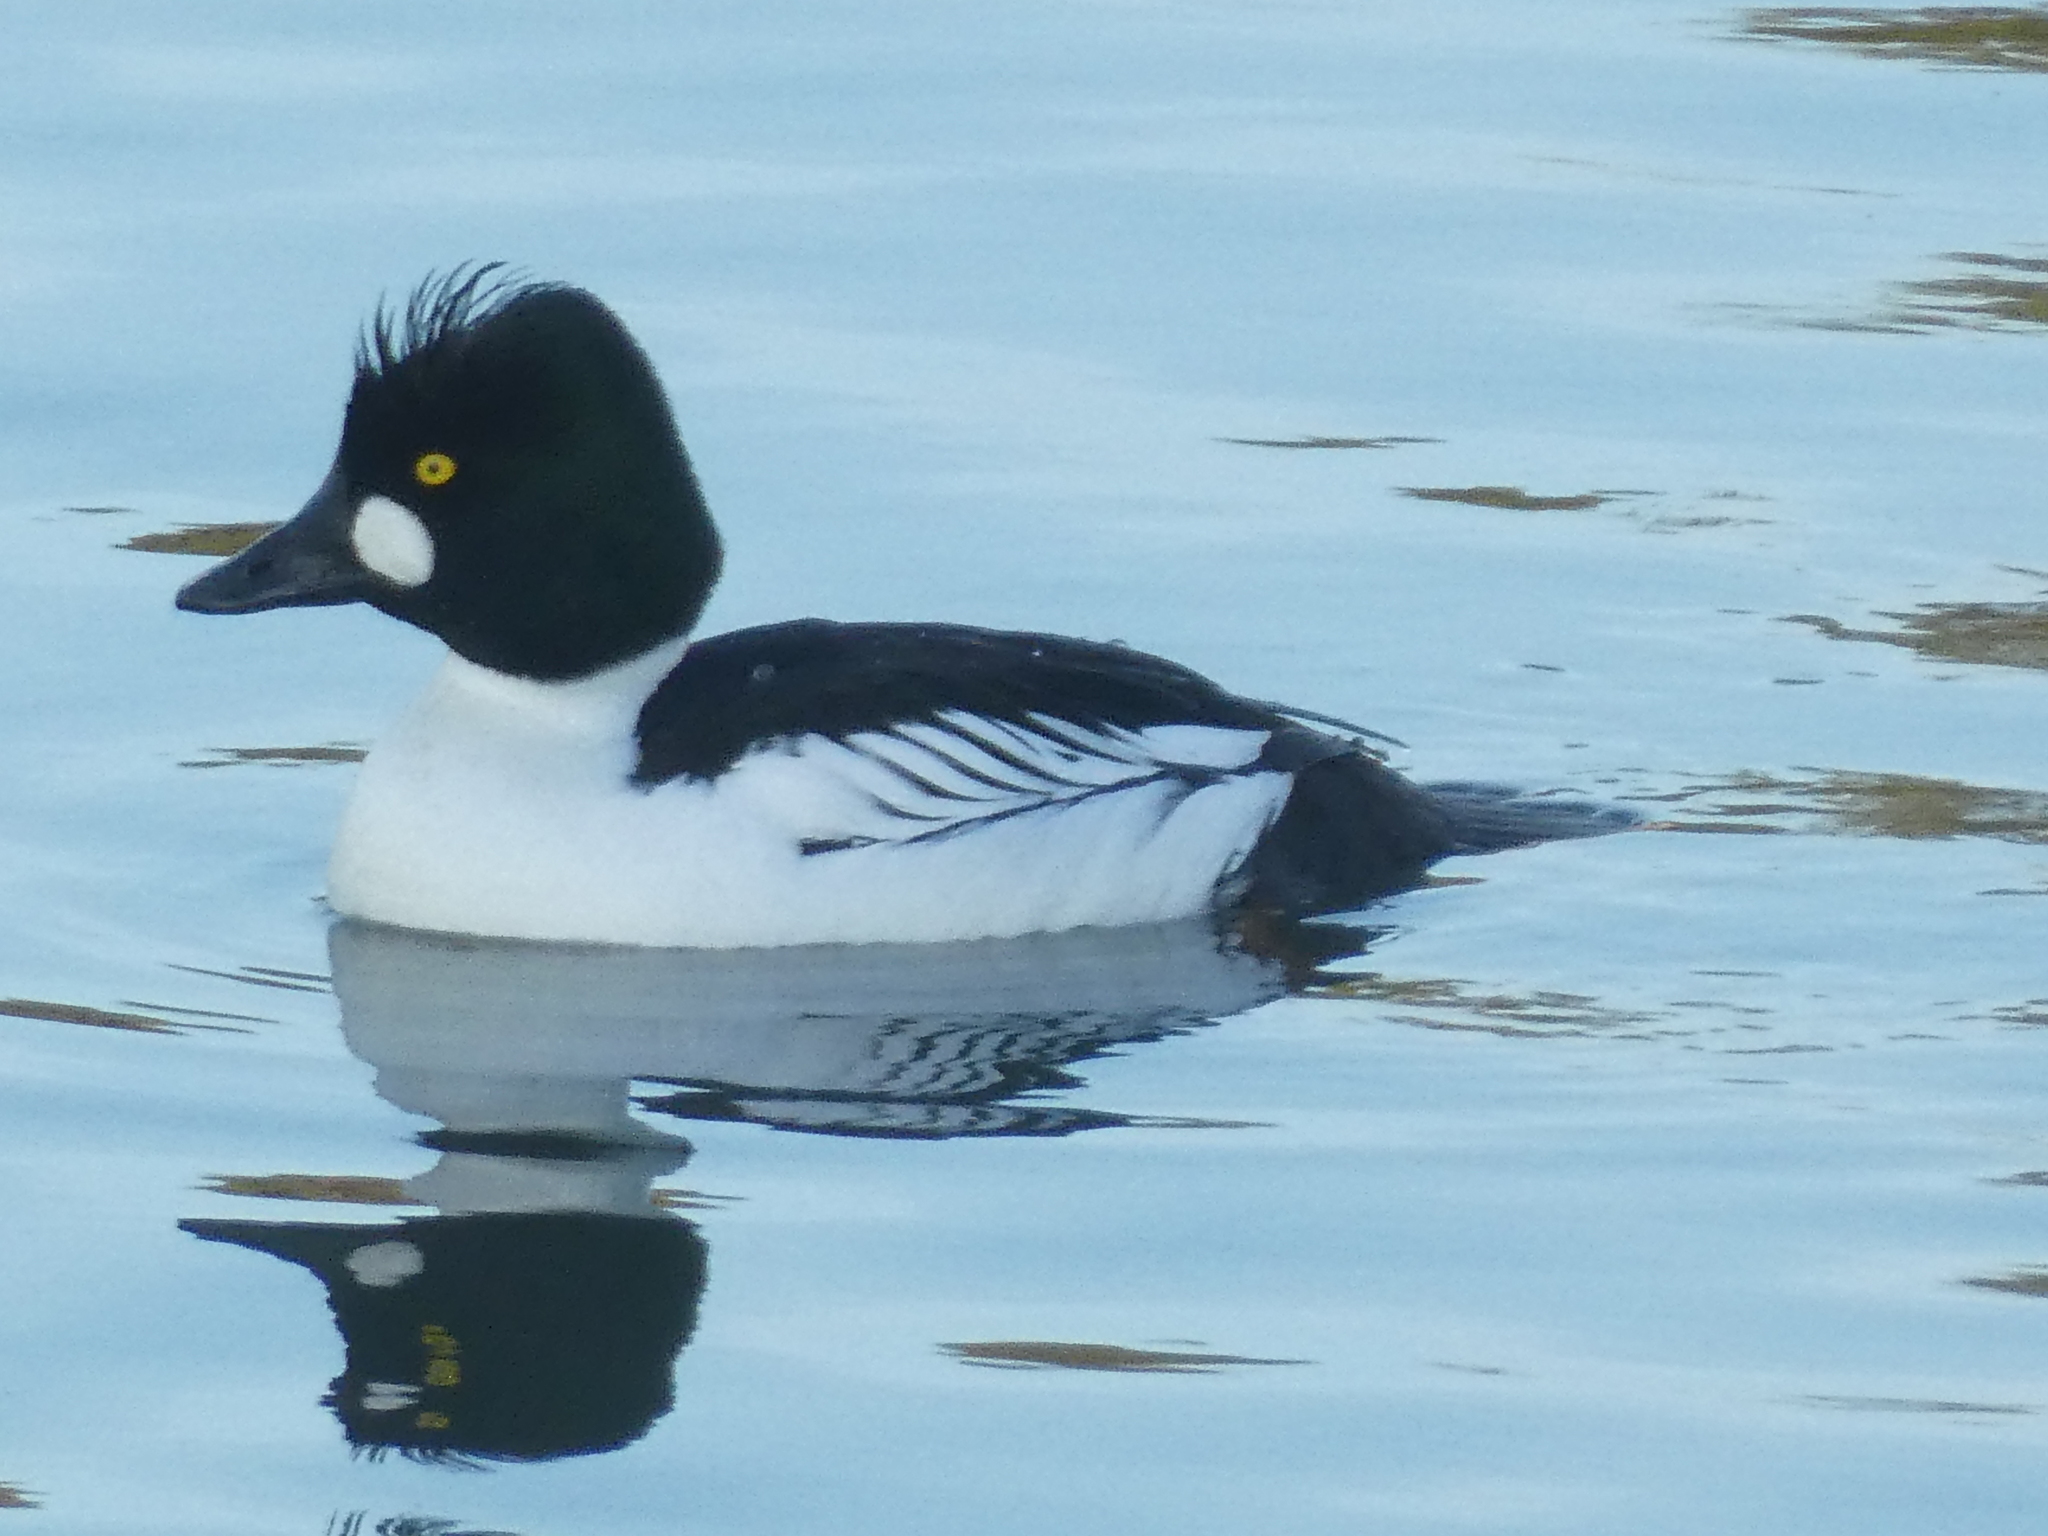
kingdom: Animalia
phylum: Chordata
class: Aves
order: Anseriformes
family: Anatidae
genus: Bucephala
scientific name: Bucephala clangula
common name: Common goldeneye
